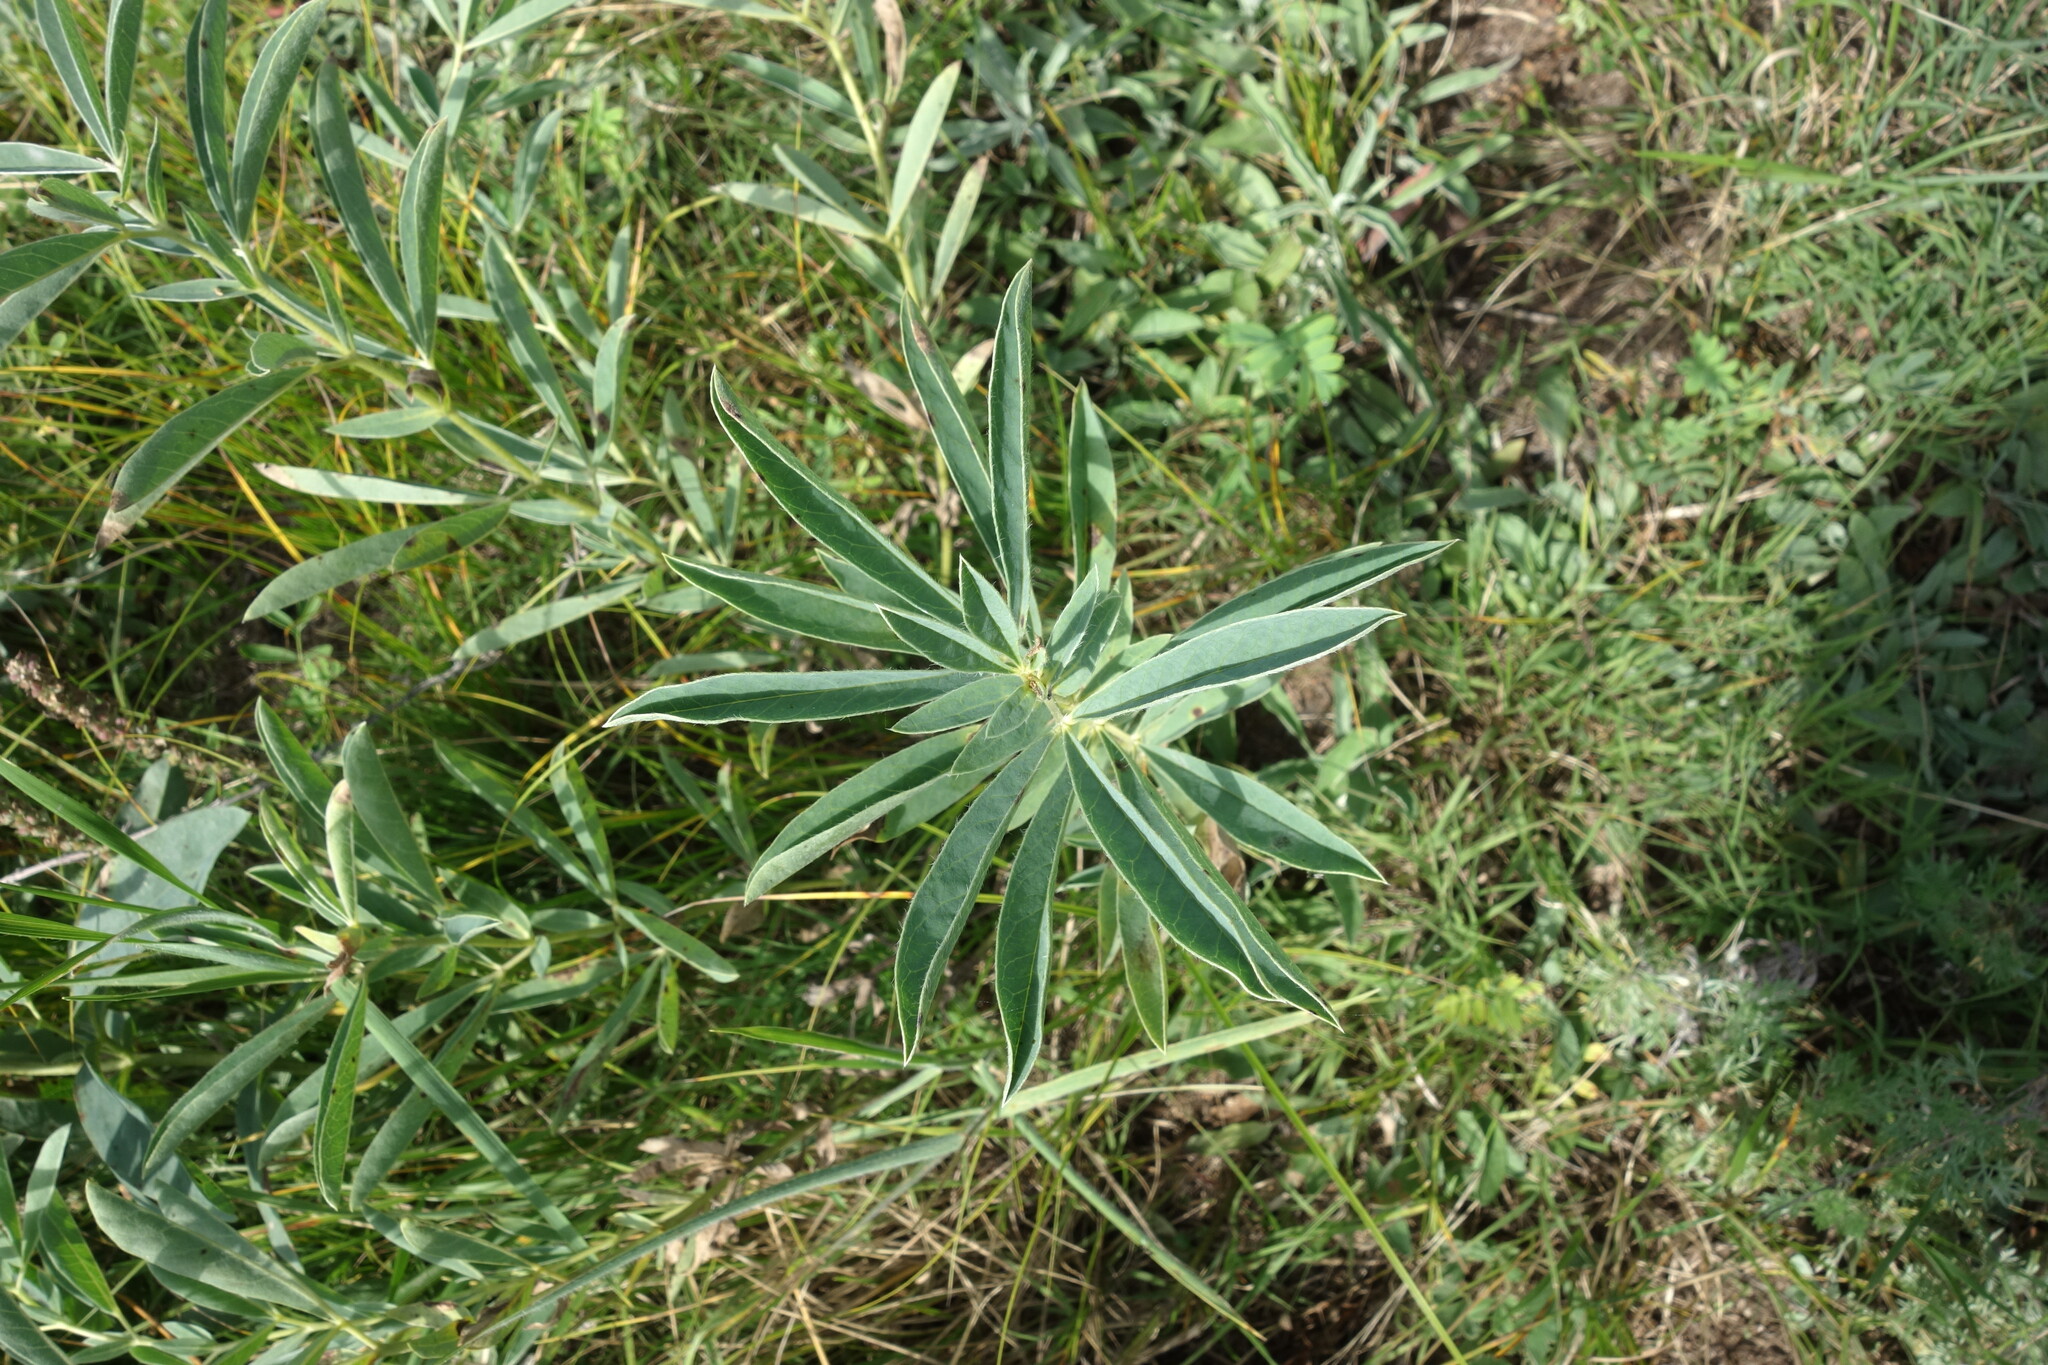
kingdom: Plantae
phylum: Tracheophyta
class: Magnoliopsida
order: Fabales
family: Fabaceae
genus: Thermopsis
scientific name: Thermopsis lanceolata
